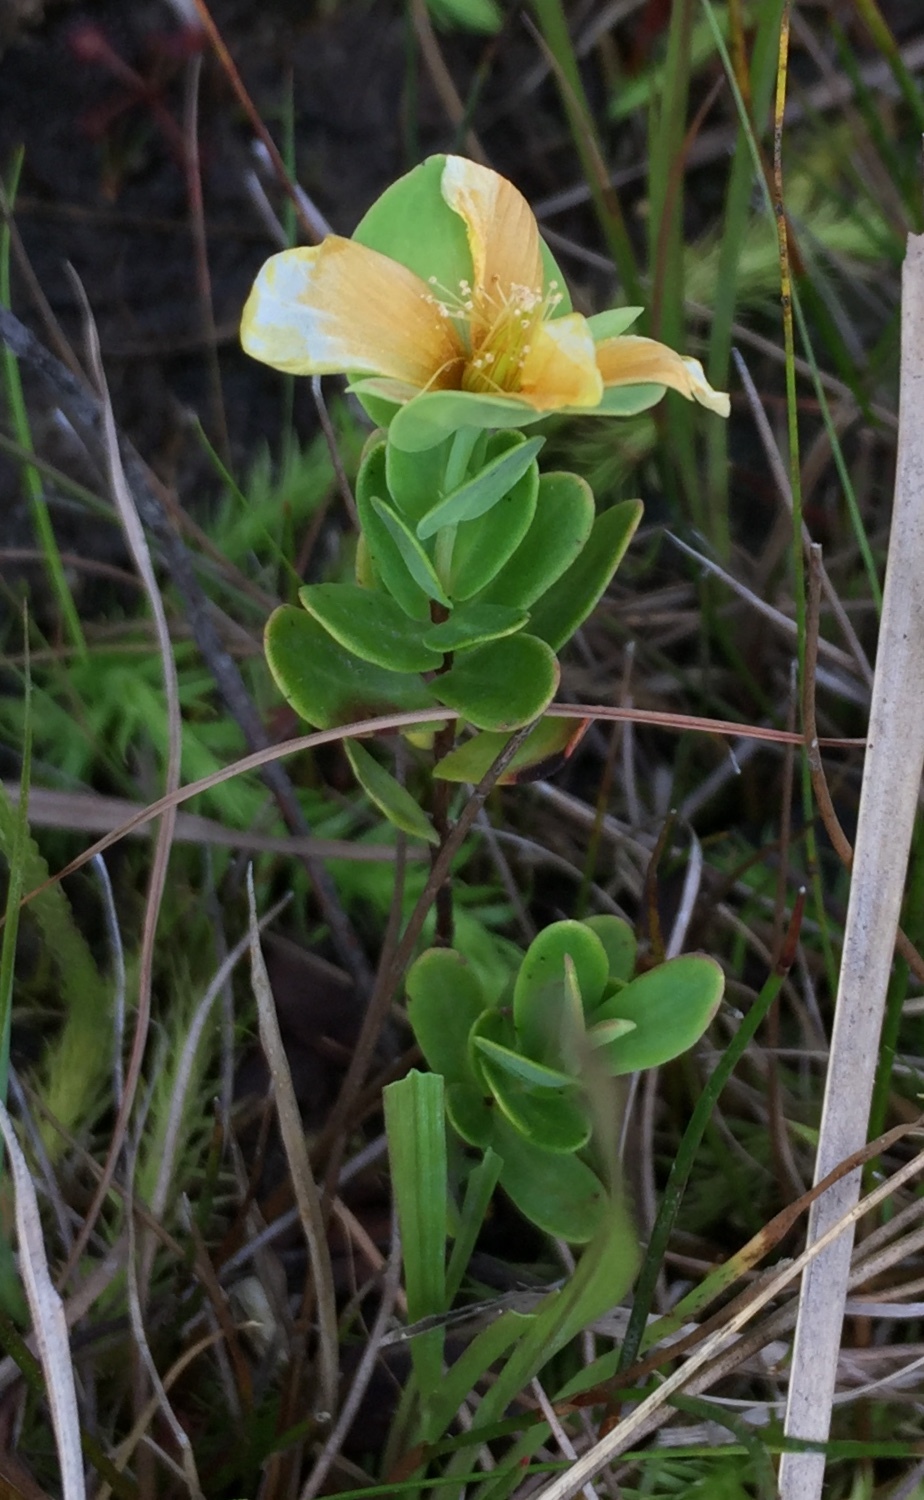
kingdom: Plantae
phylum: Tracheophyta
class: Magnoliopsida
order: Malpighiales
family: Hypericaceae
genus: Hypericum
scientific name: Hypericum crux-andreae
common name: St.-peter's-wort
